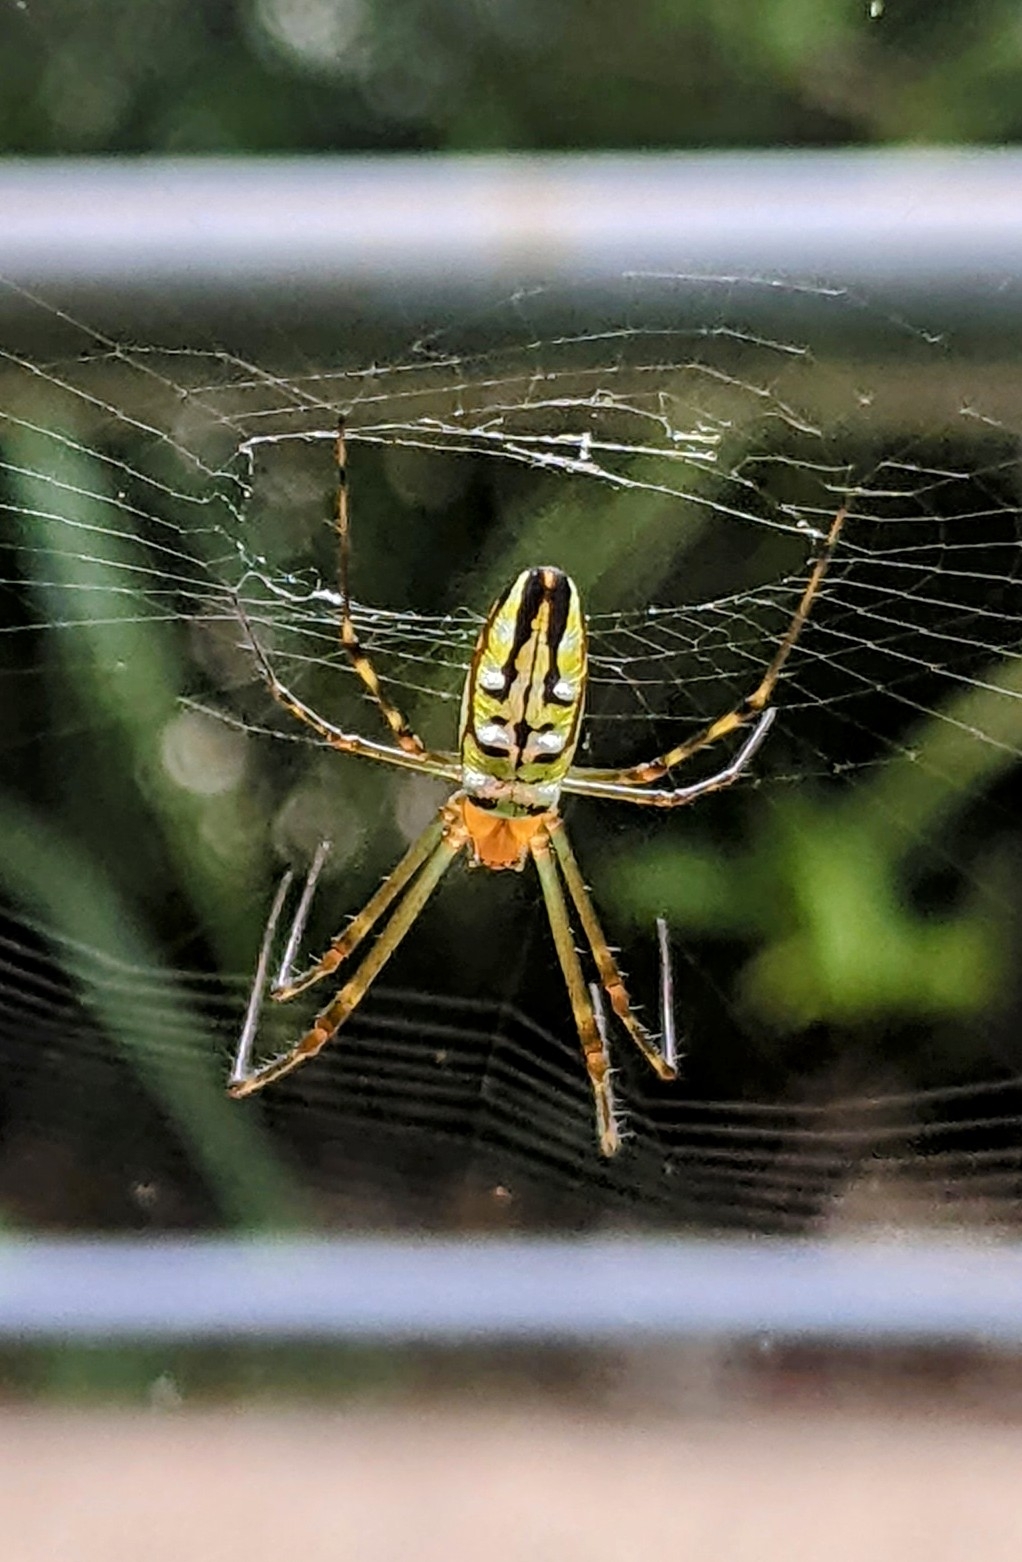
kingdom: Animalia
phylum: Arthropoda
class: Arachnida
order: Araneae
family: Tetragnathidae
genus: Leucauge
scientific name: Leucauge dromedaria
